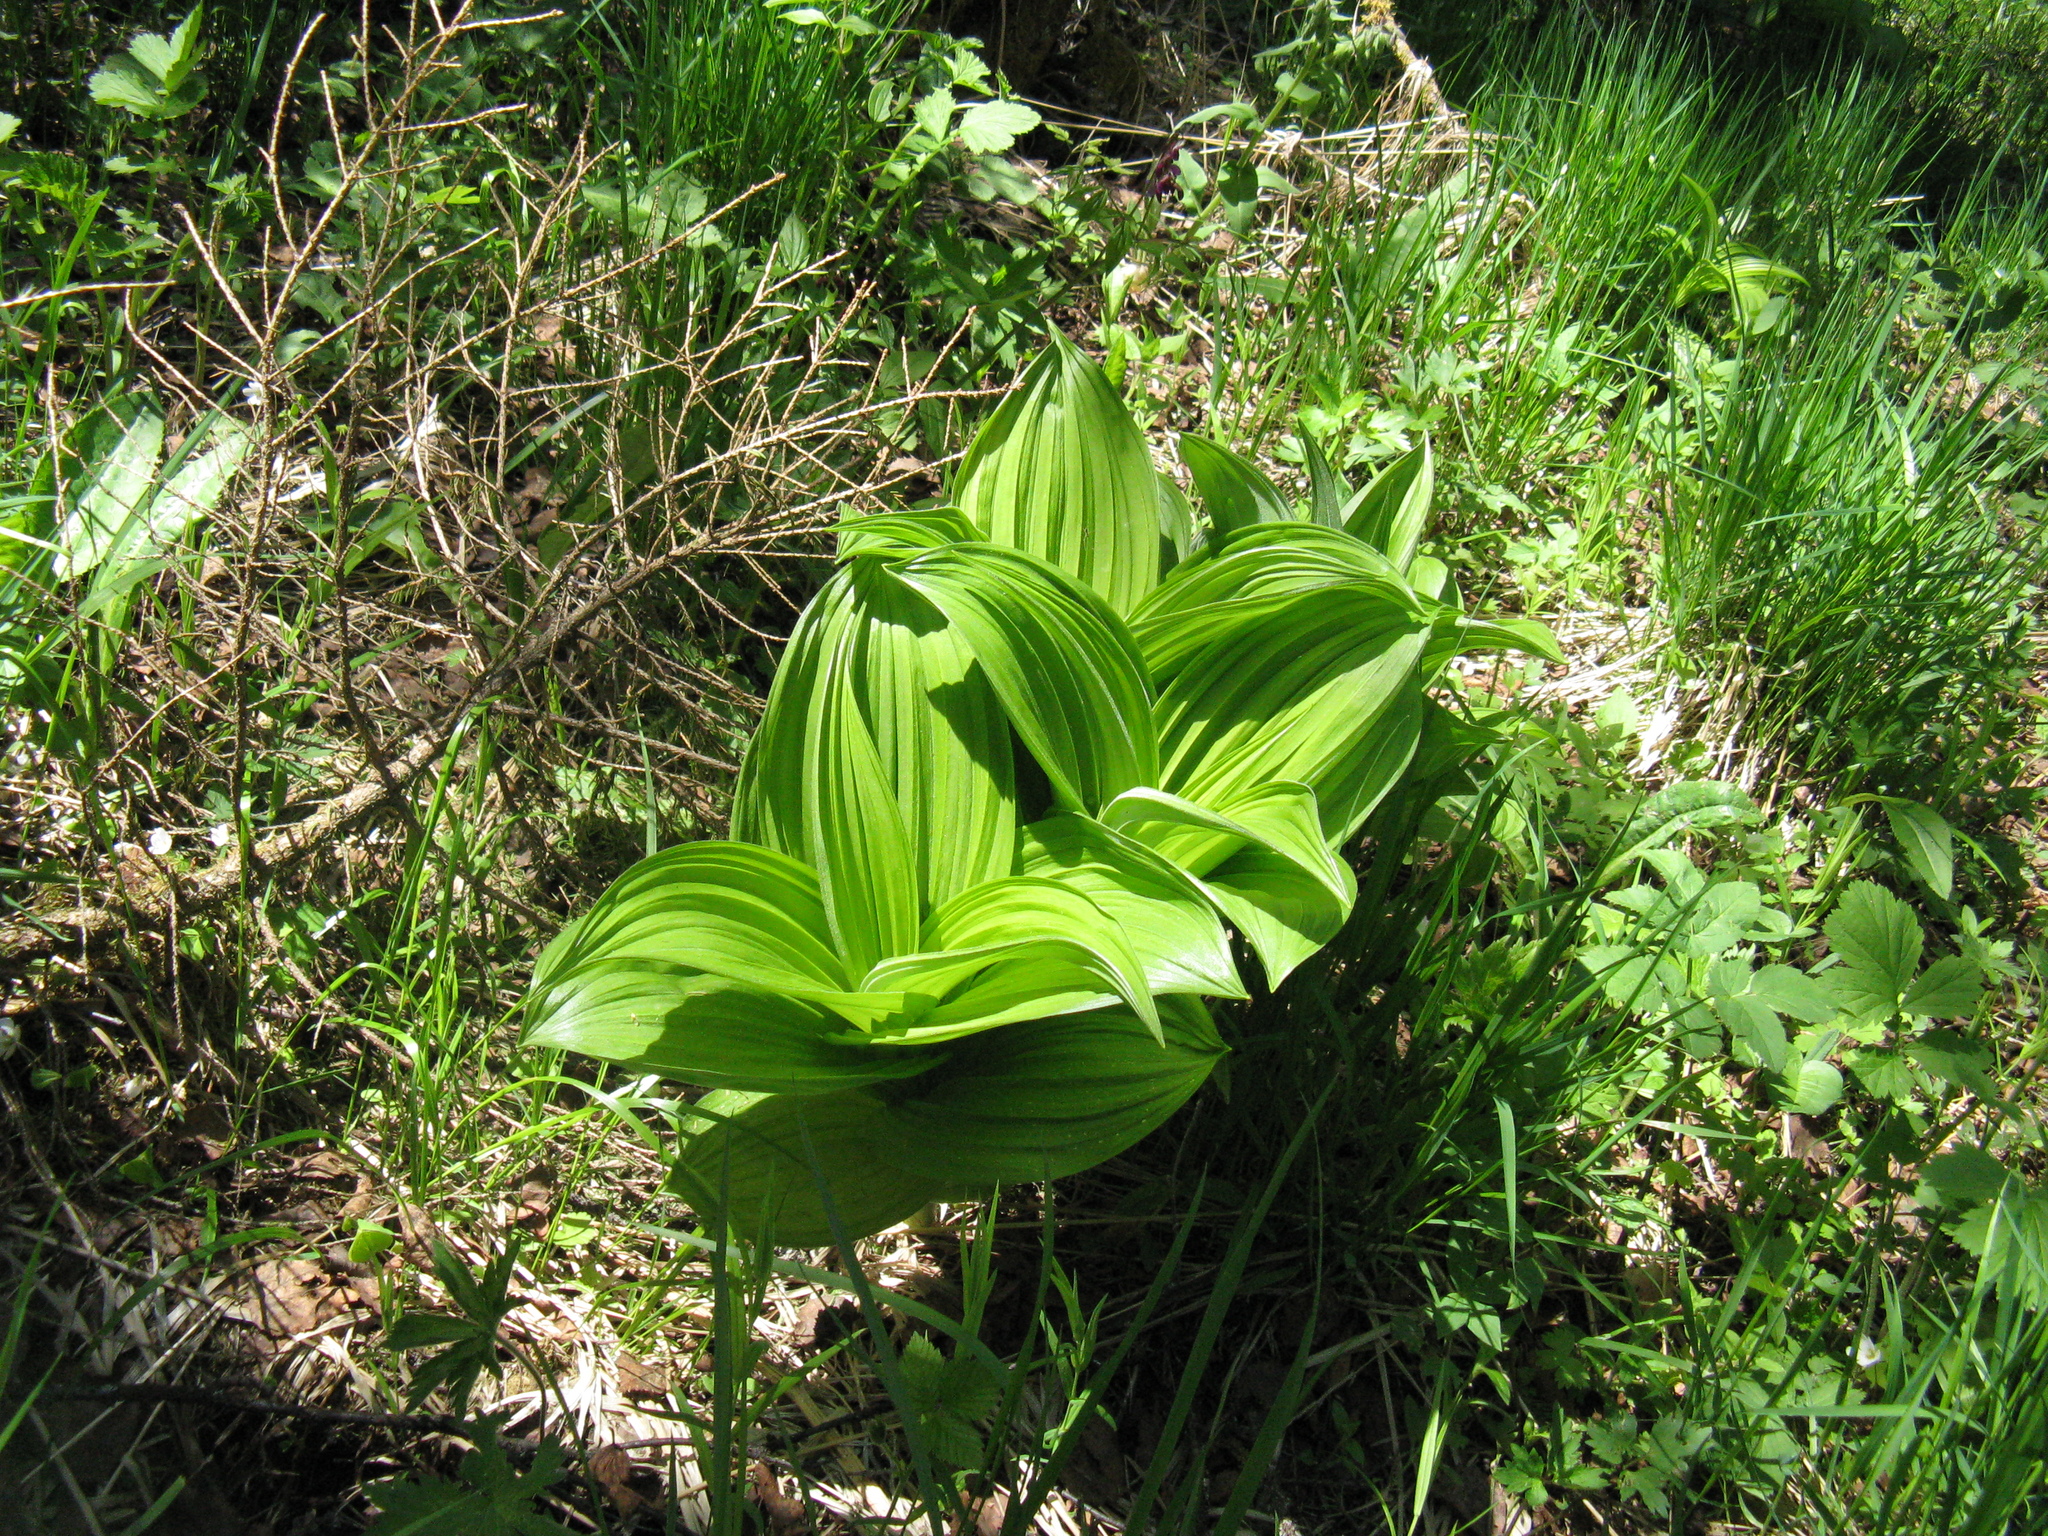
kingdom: Plantae
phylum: Tracheophyta
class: Liliopsida
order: Liliales
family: Melanthiaceae
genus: Veratrum
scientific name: Veratrum lobelianum
